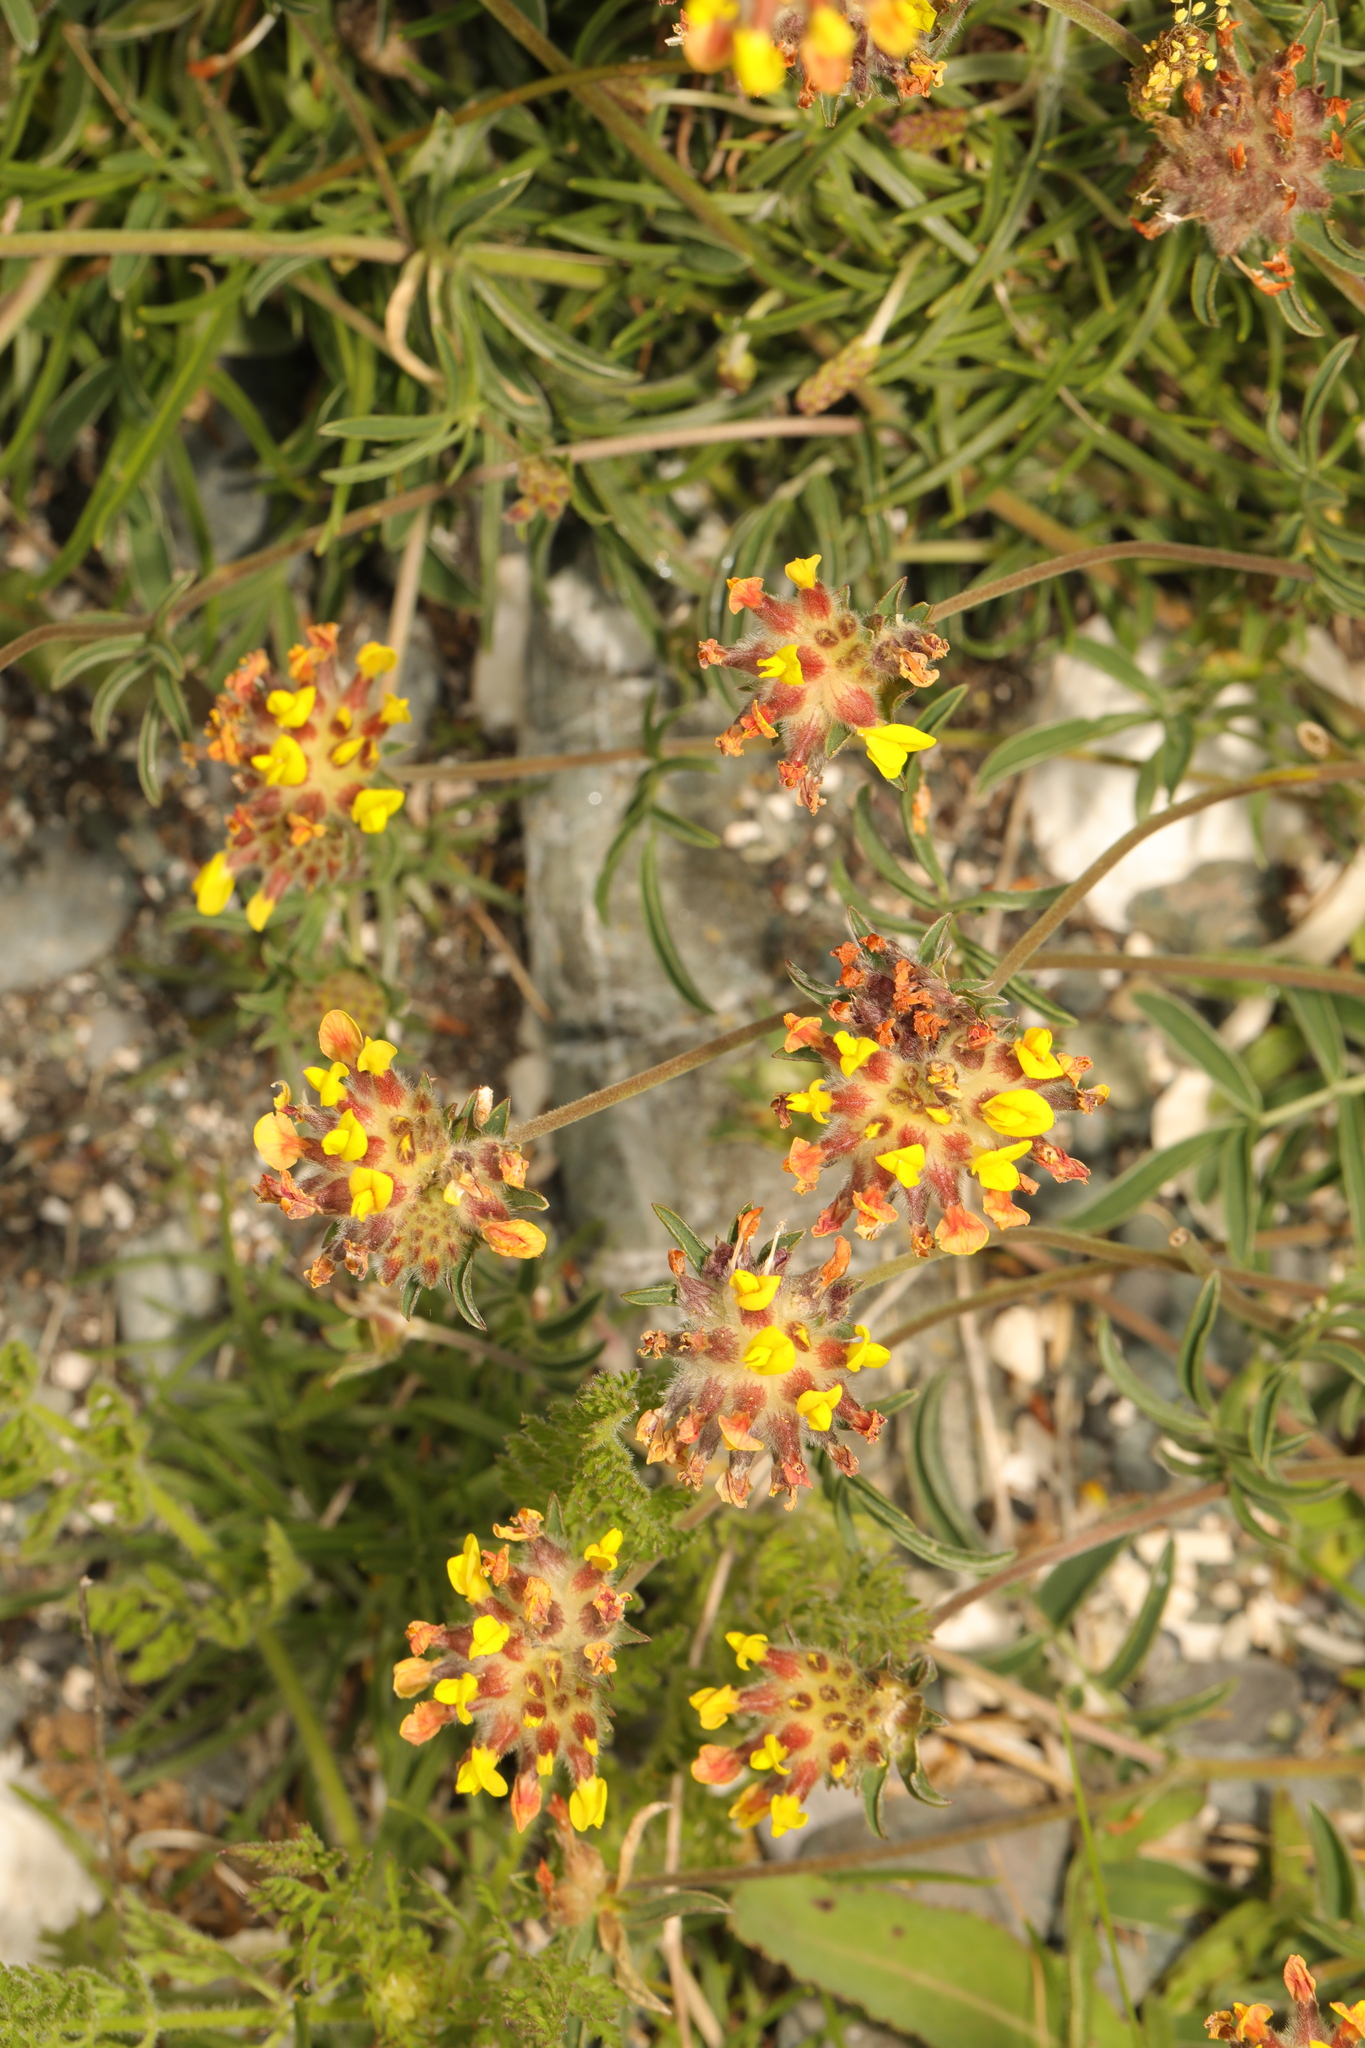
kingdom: Plantae
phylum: Tracheophyta
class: Magnoliopsida
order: Fabales
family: Fabaceae
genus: Anthyllis
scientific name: Anthyllis vulneraria
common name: Kidney vetch
